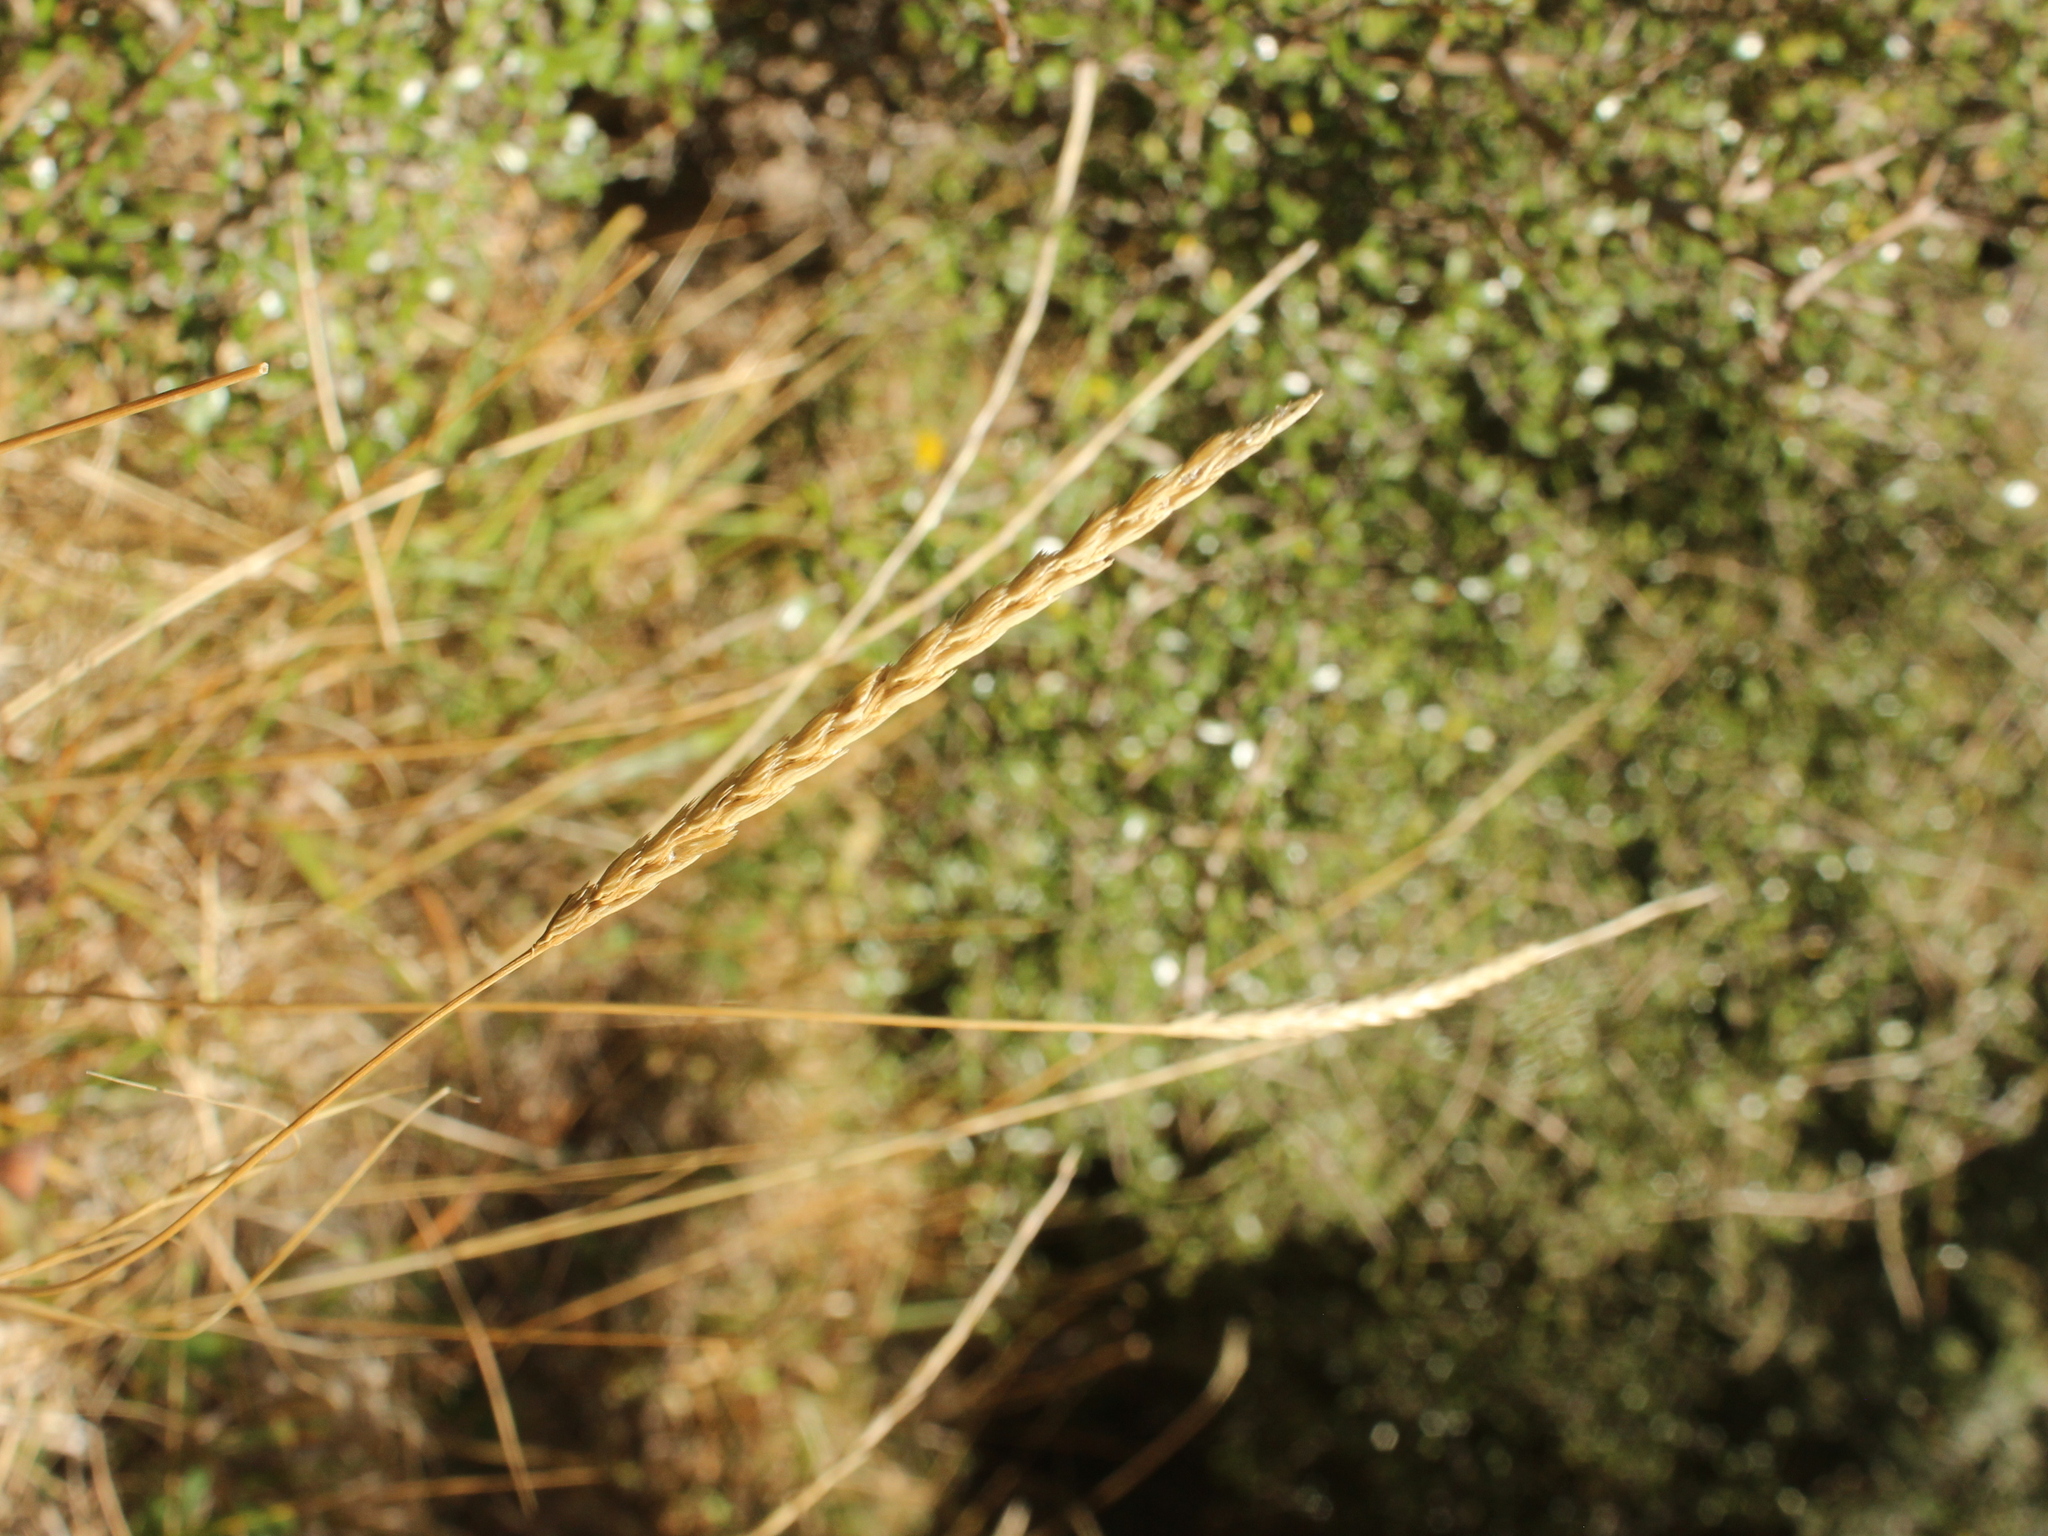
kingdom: Plantae
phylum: Tracheophyta
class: Liliopsida
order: Poales
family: Poaceae
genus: Cynosurus
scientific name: Cynosurus cristatus
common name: Crested dog's-tail
